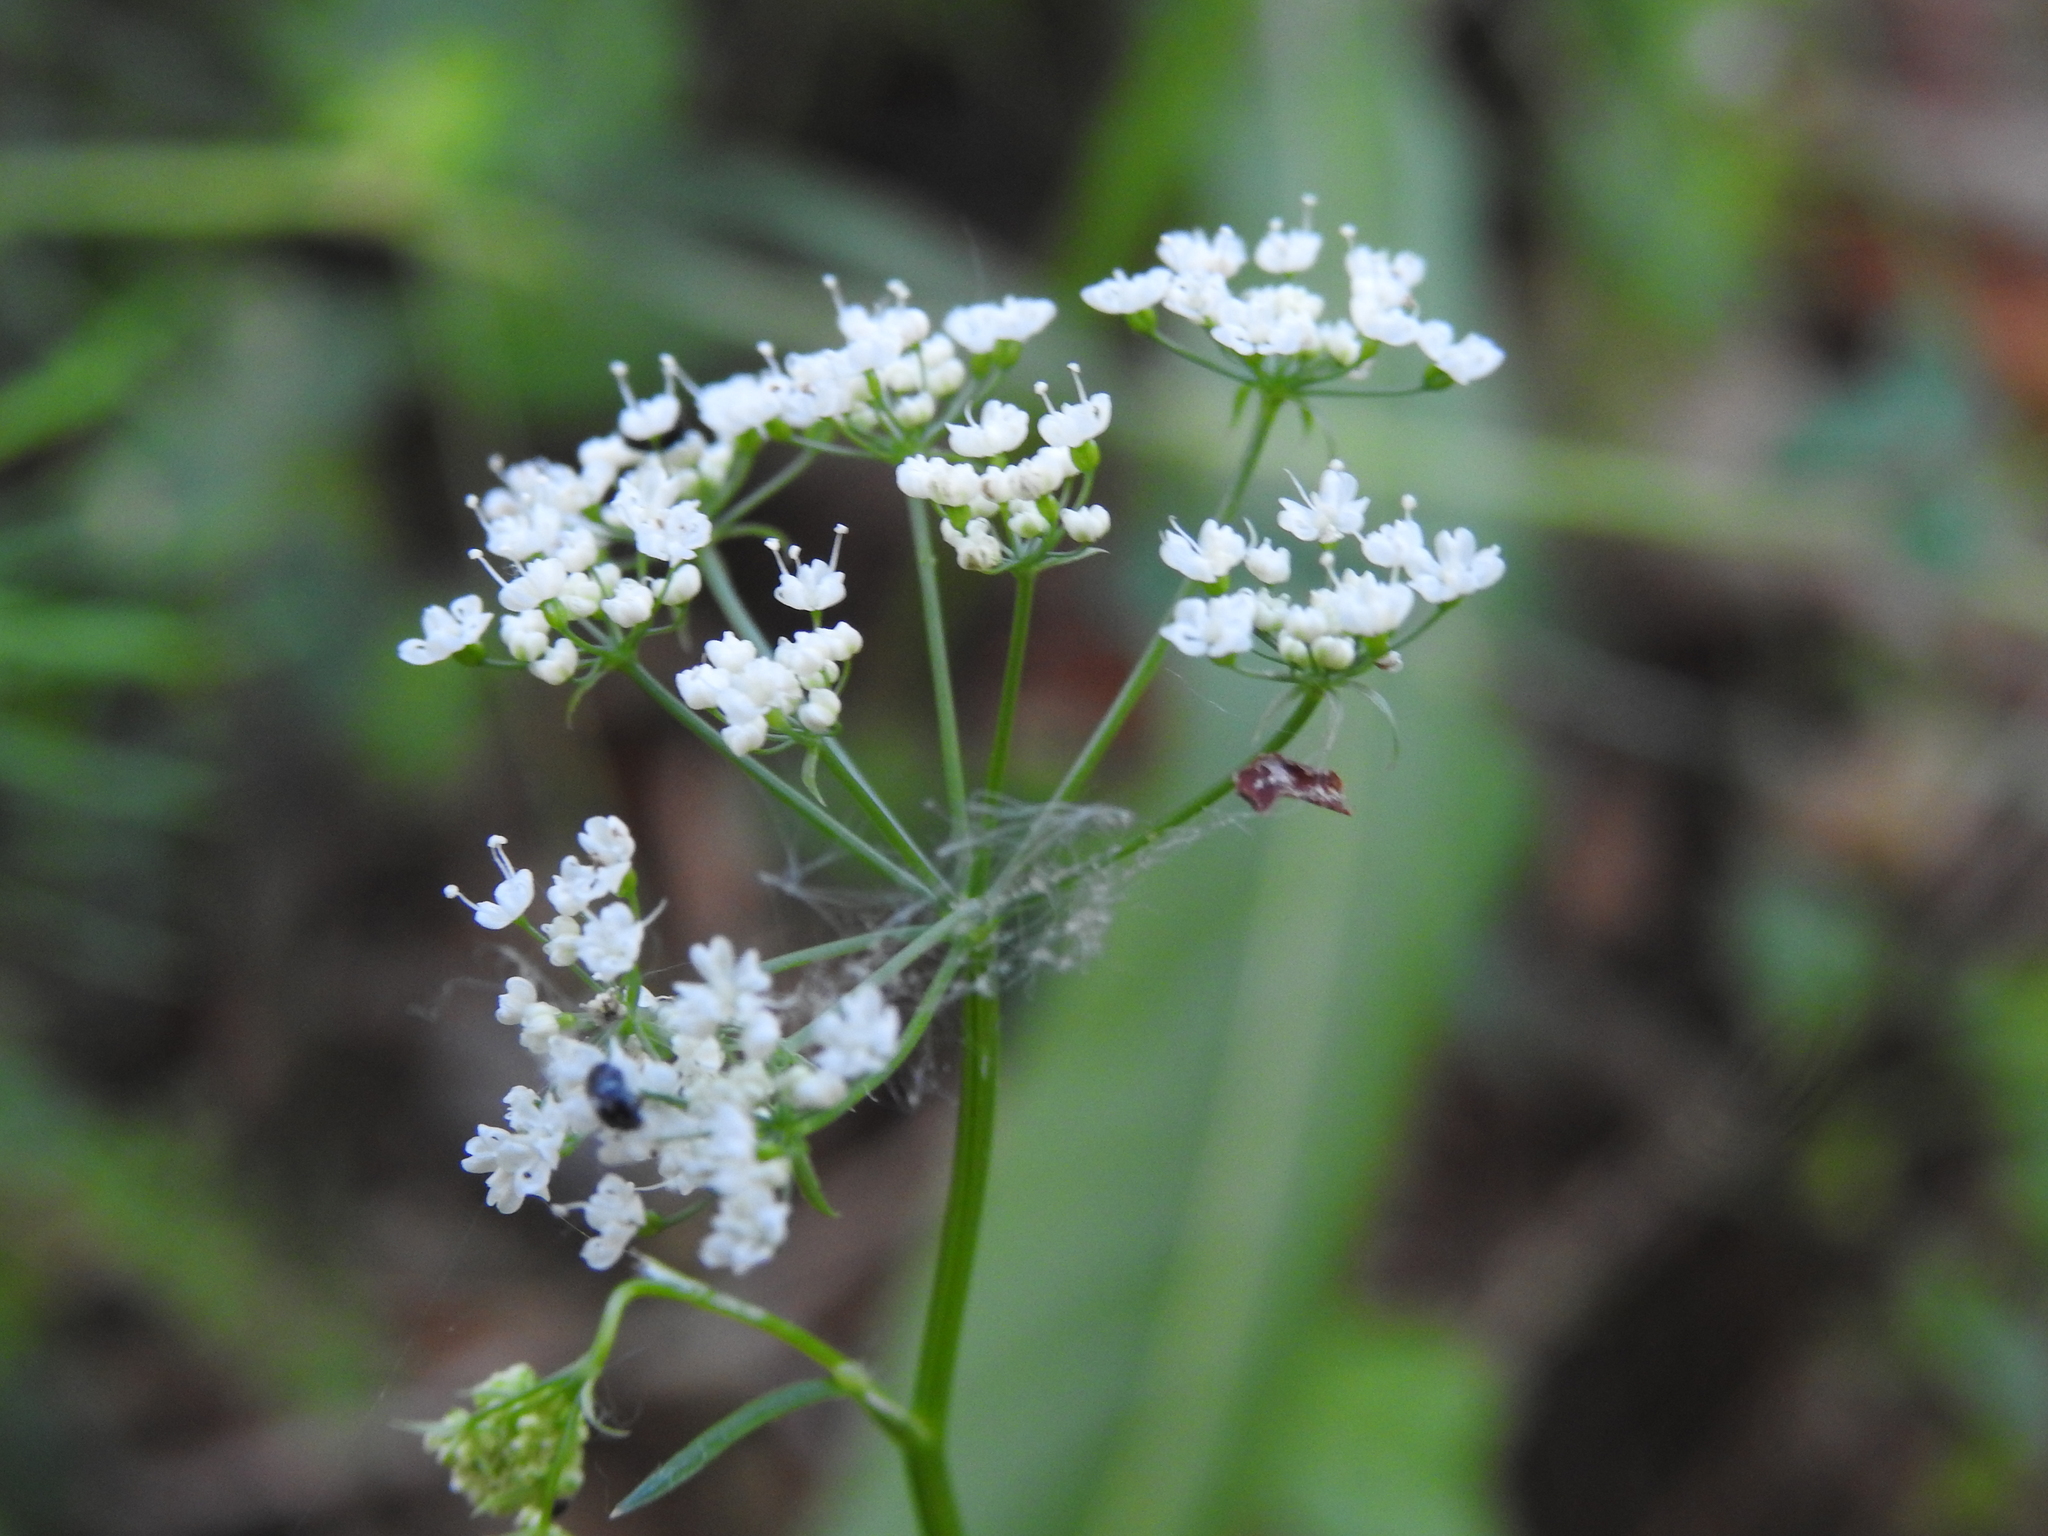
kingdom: Plantae
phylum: Tracheophyta
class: Magnoliopsida
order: Apiales
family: Apiaceae
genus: Conopodium
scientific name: Conopodium majus
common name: Pignut
